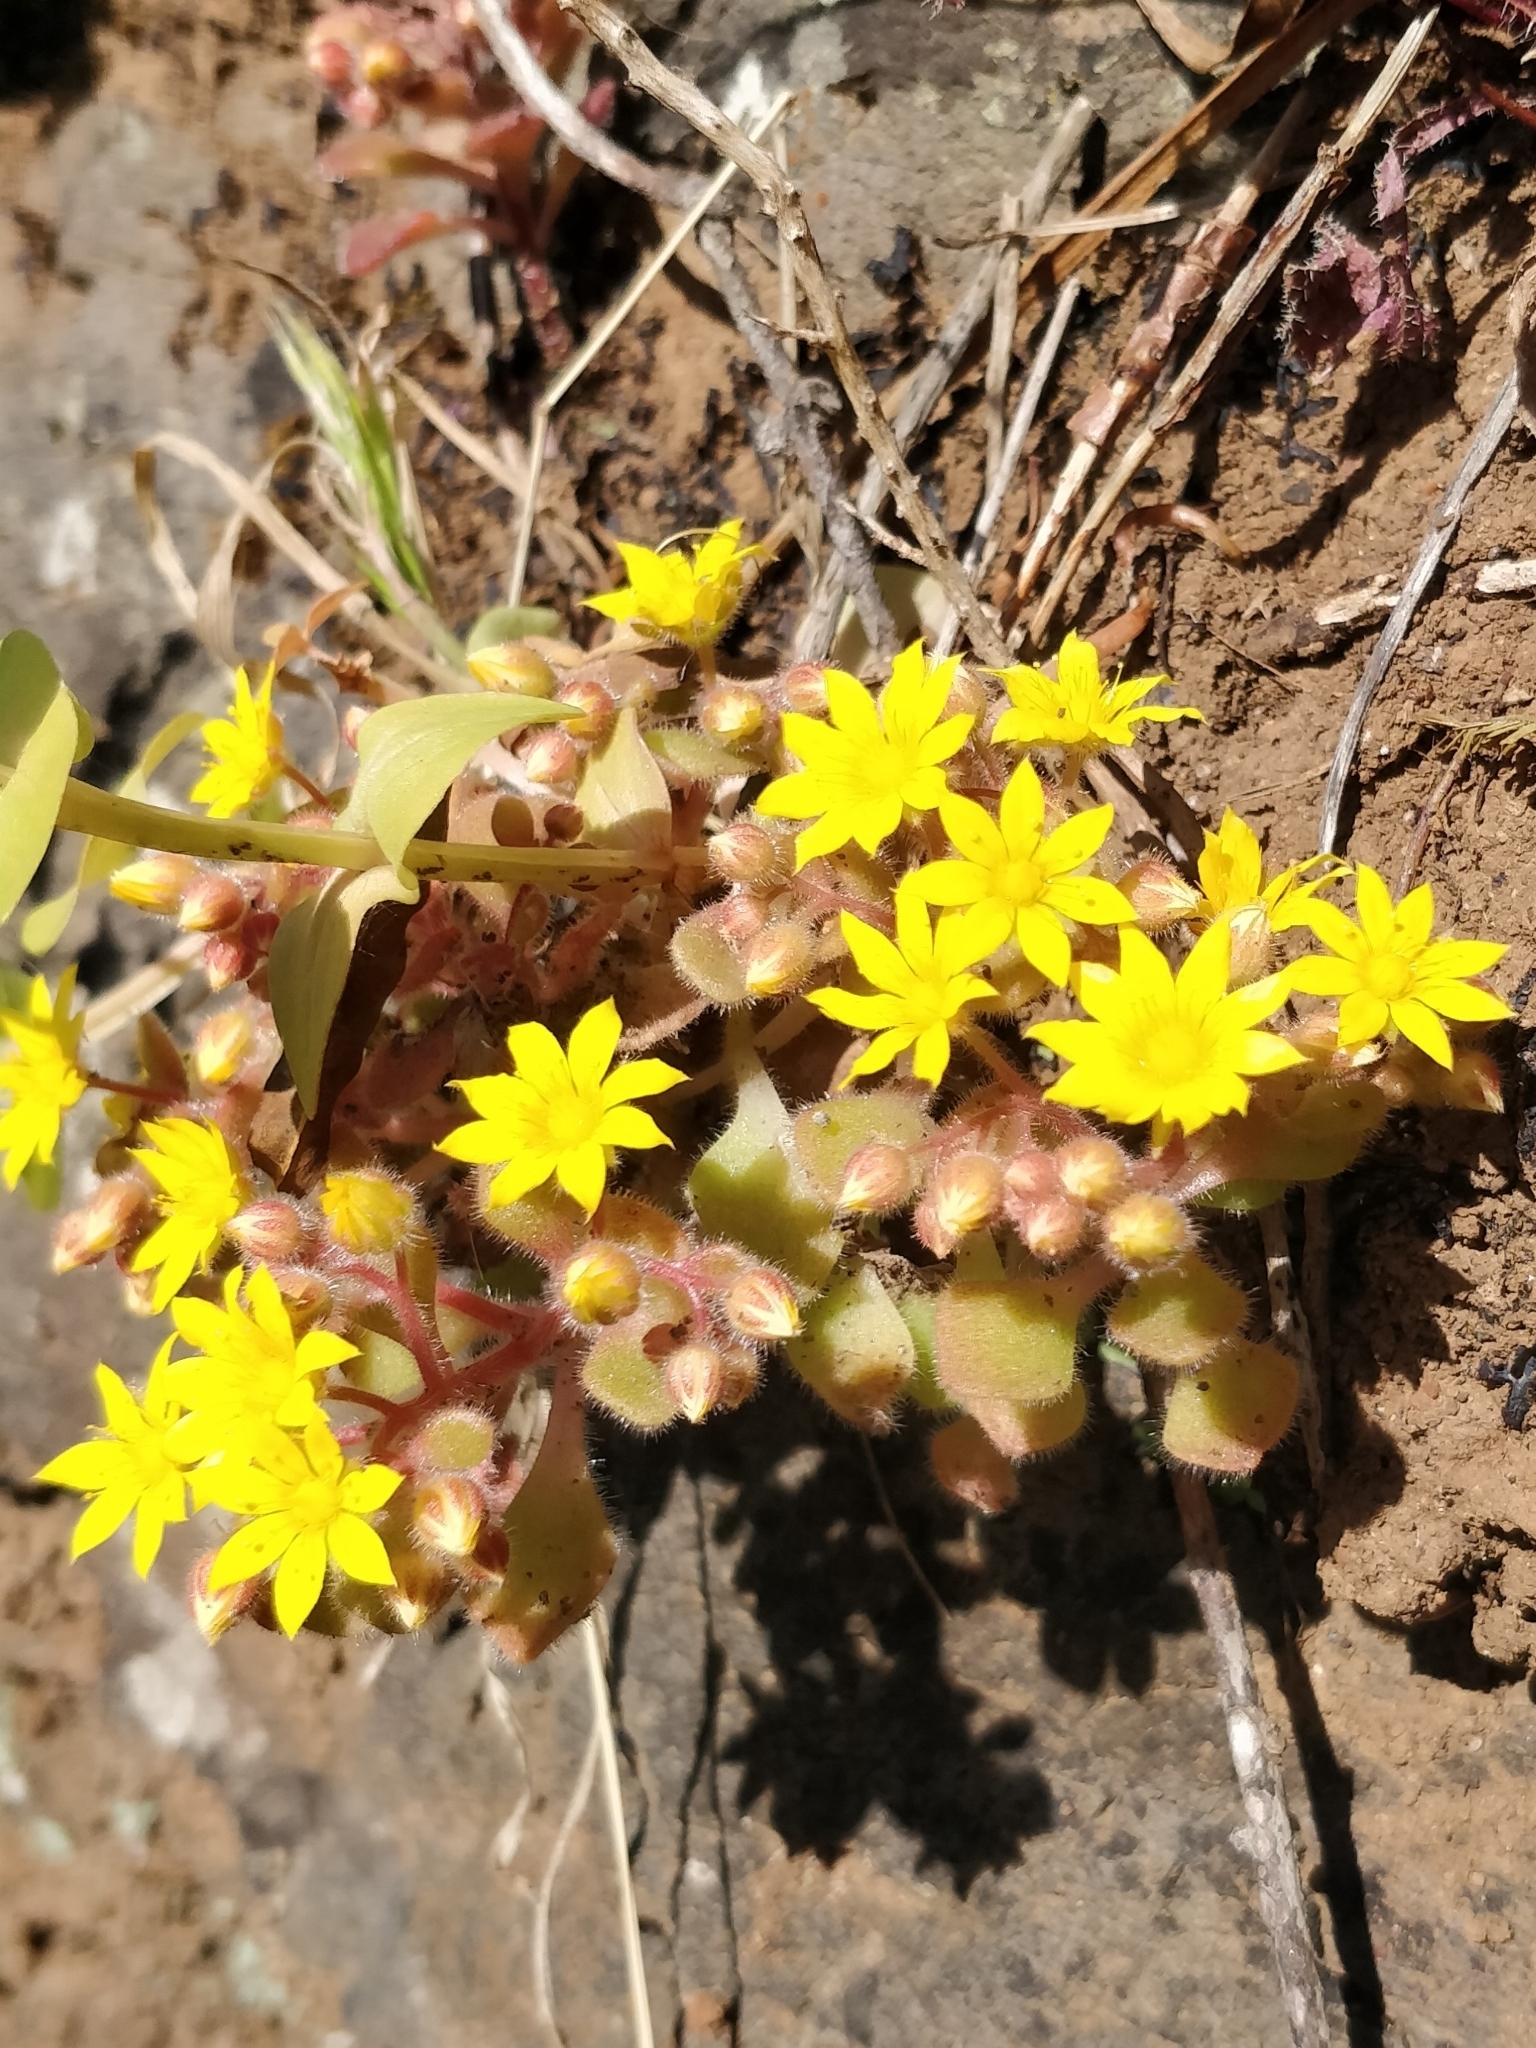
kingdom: Plantae
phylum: Tracheophyta
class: Magnoliopsida
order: Saxifragales
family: Crassulaceae
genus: Aichryson
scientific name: Aichryson villosum
